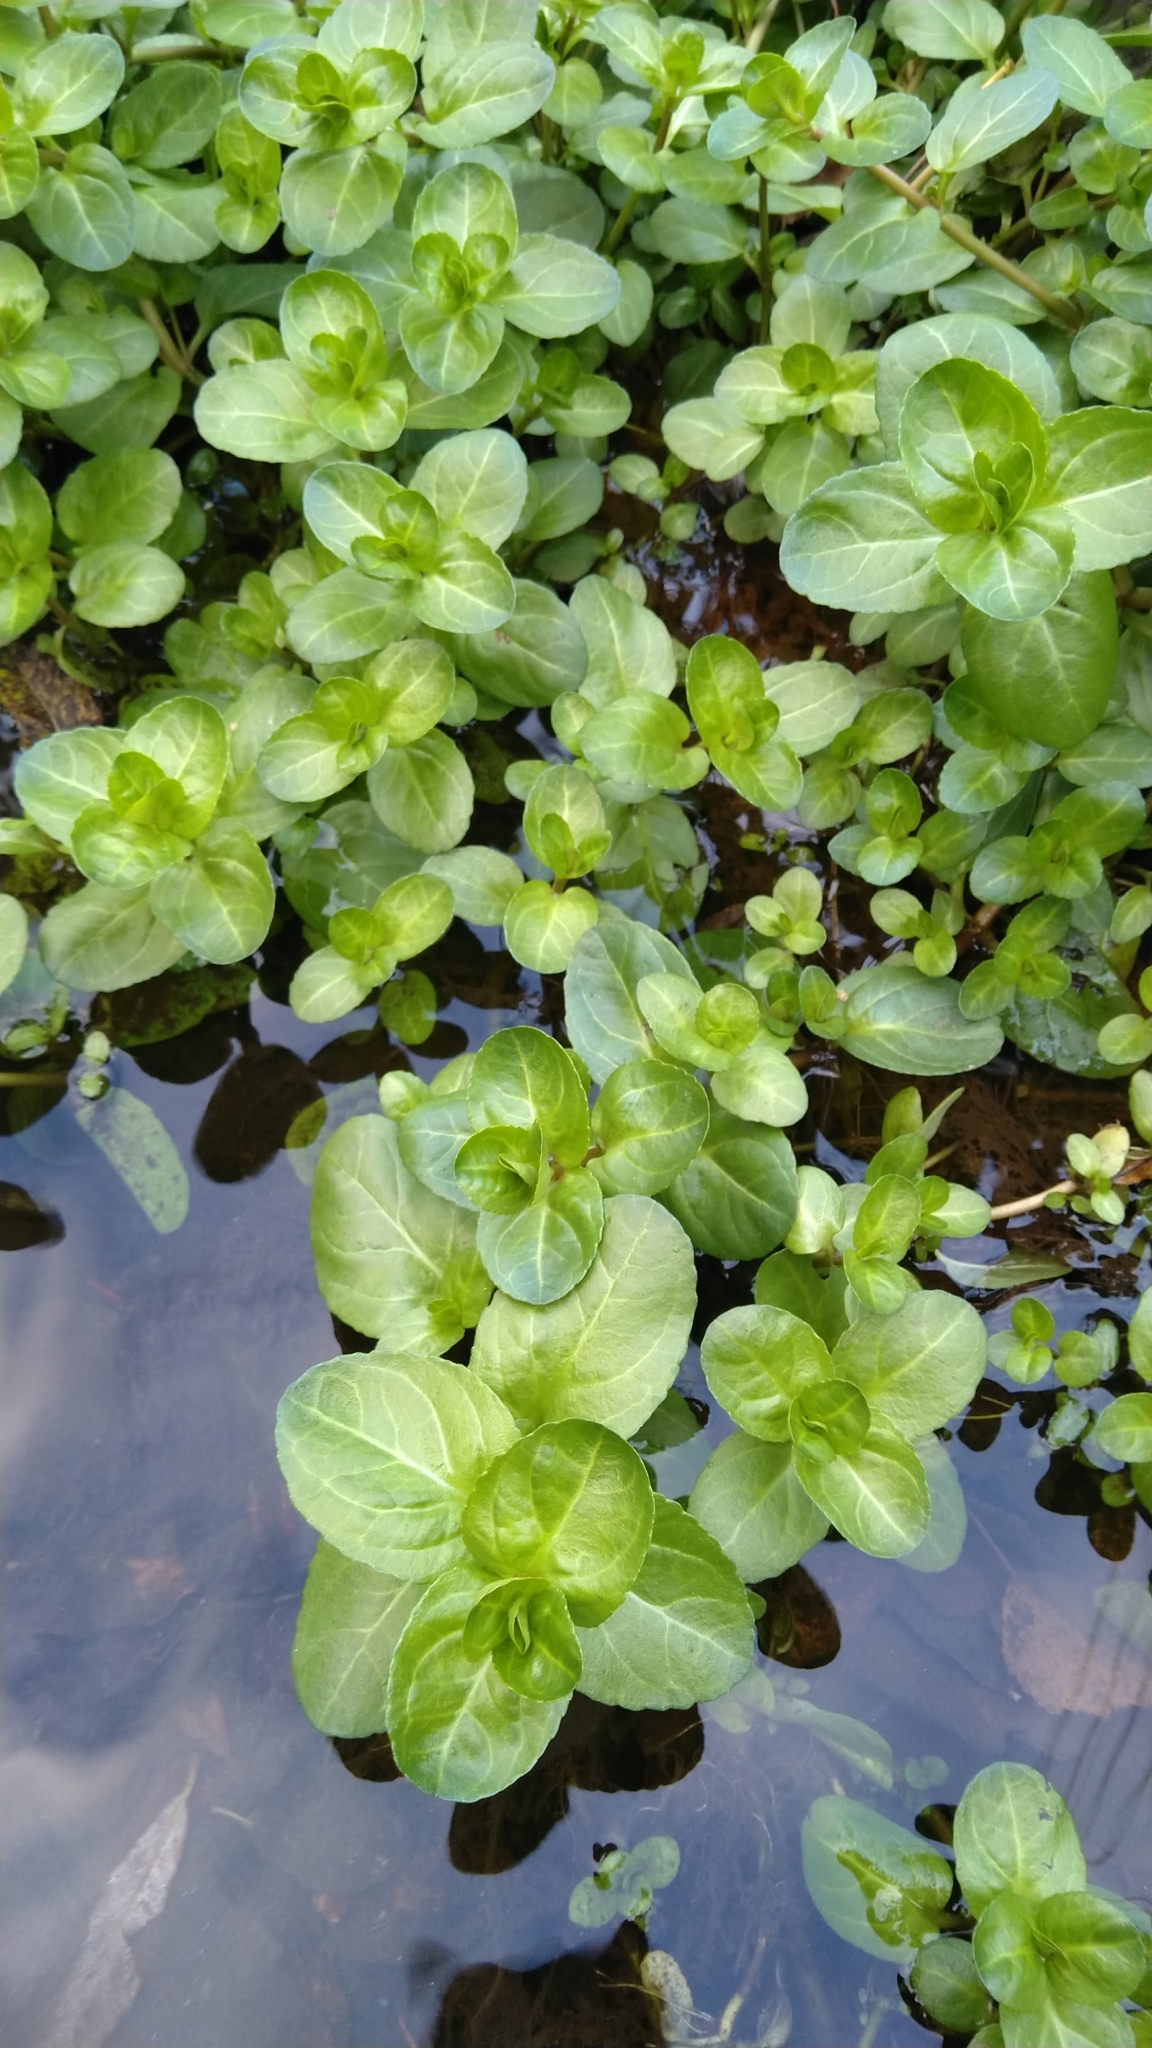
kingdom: Plantae
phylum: Tracheophyta
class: Magnoliopsida
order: Lamiales
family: Plantaginaceae
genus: Veronica
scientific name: Veronica beccabunga
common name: Brooklime
